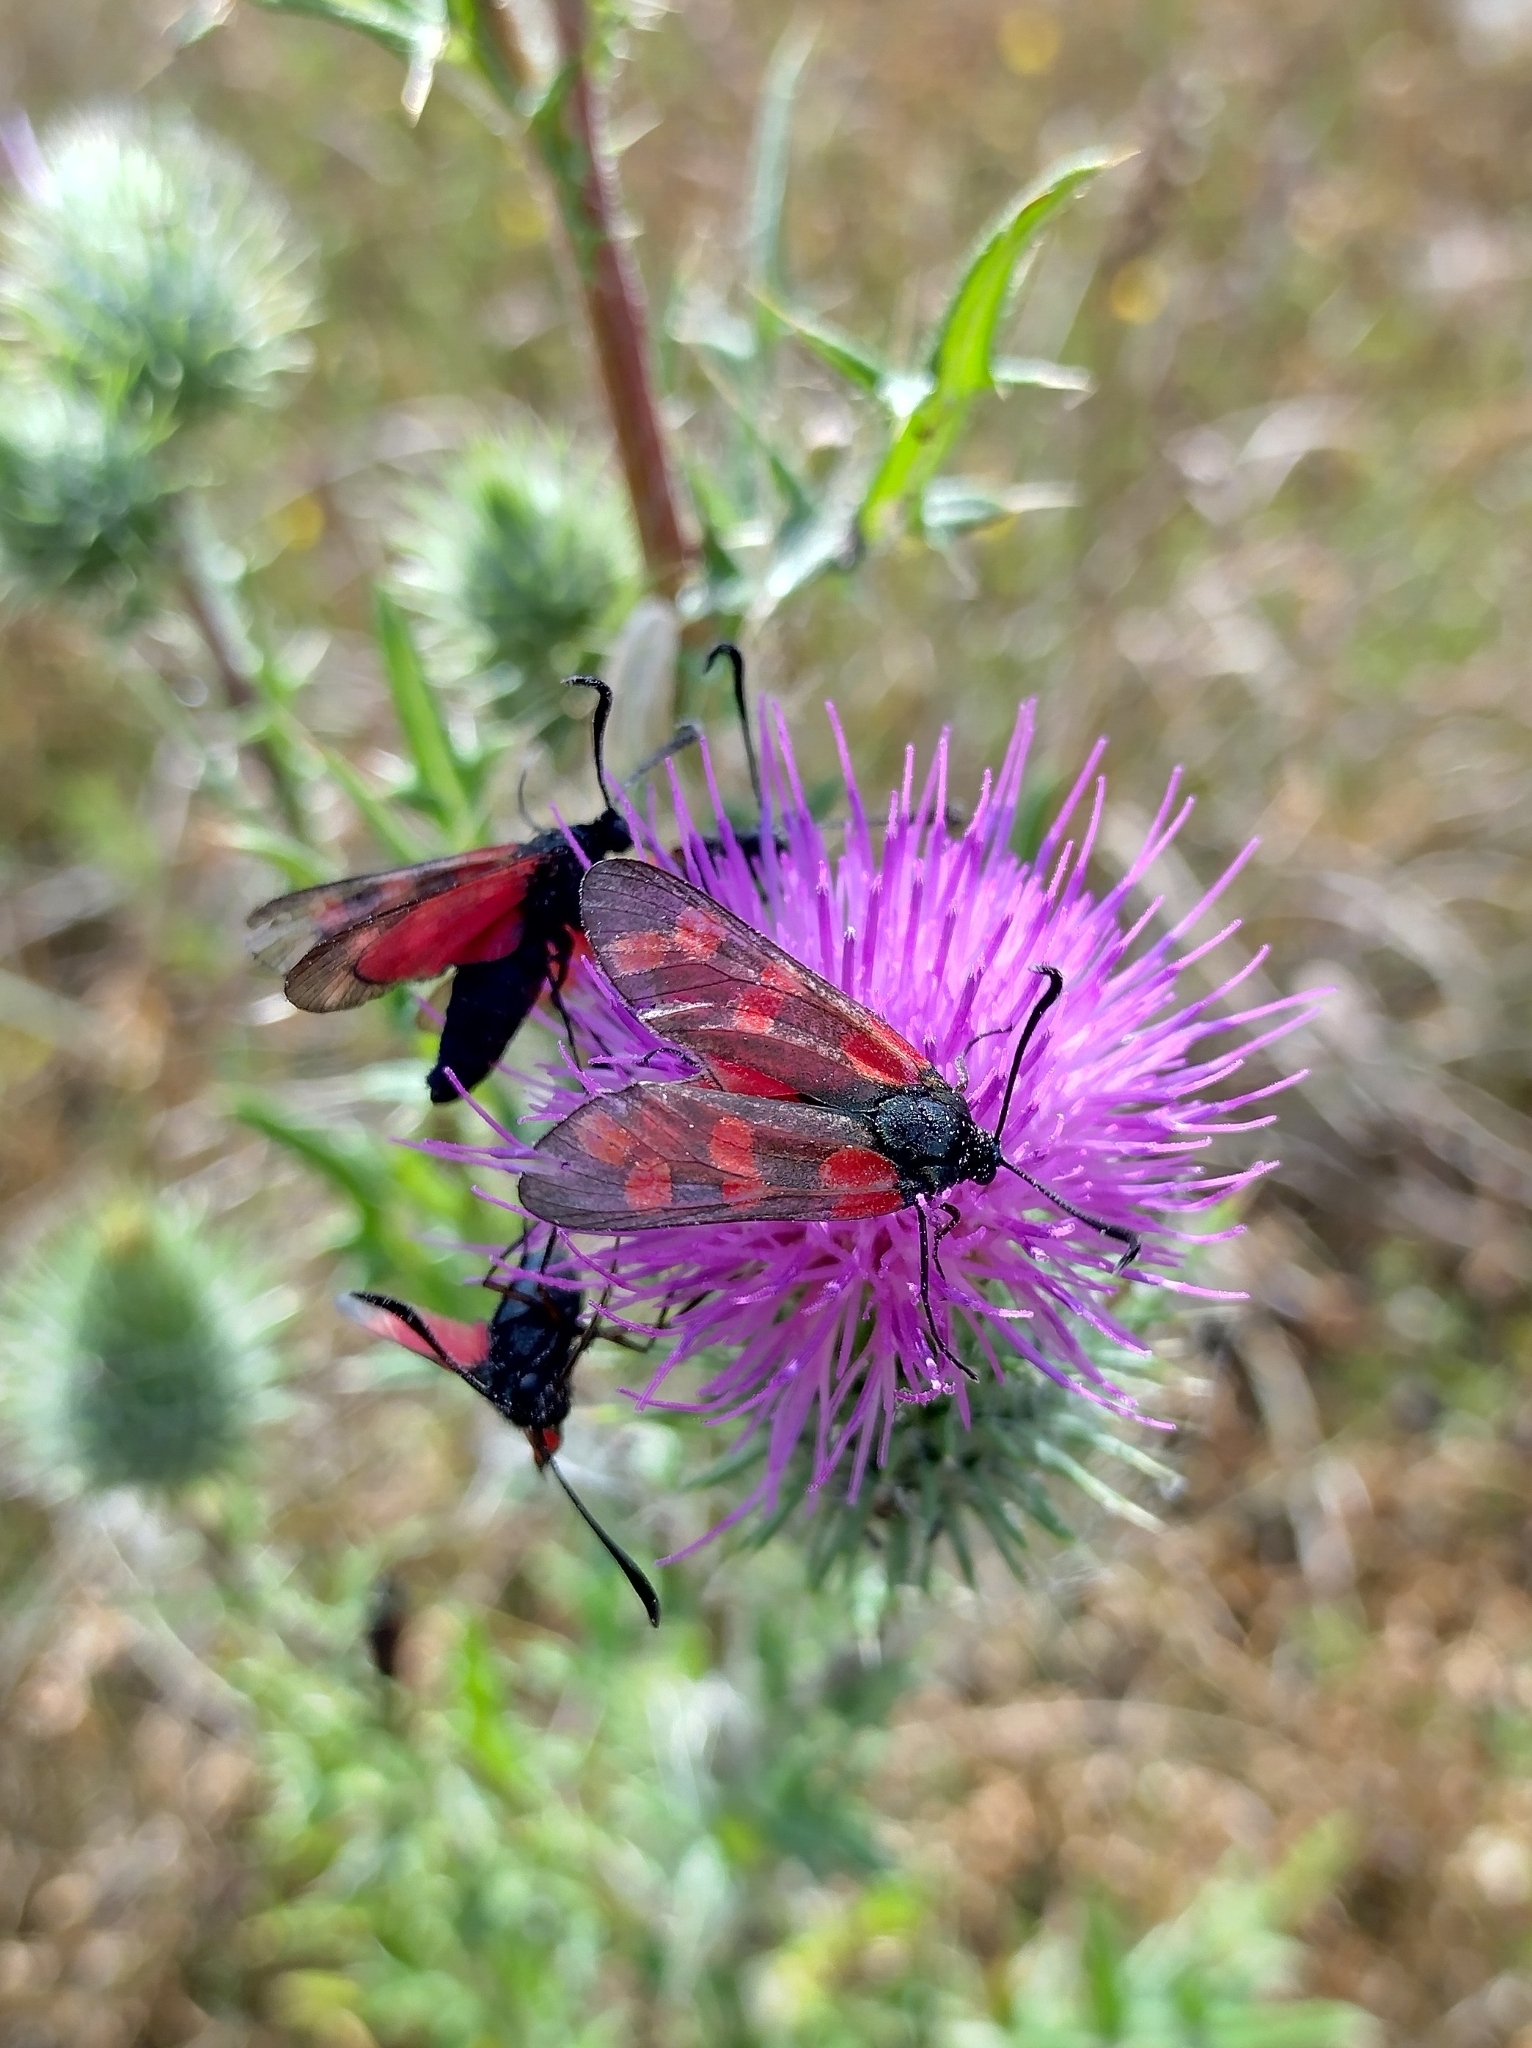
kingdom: Animalia
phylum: Arthropoda
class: Insecta
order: Lepidoptera
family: Zygaenidae
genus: Zygaena
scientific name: Zygaena filipendulae
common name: Six-spot burnet
